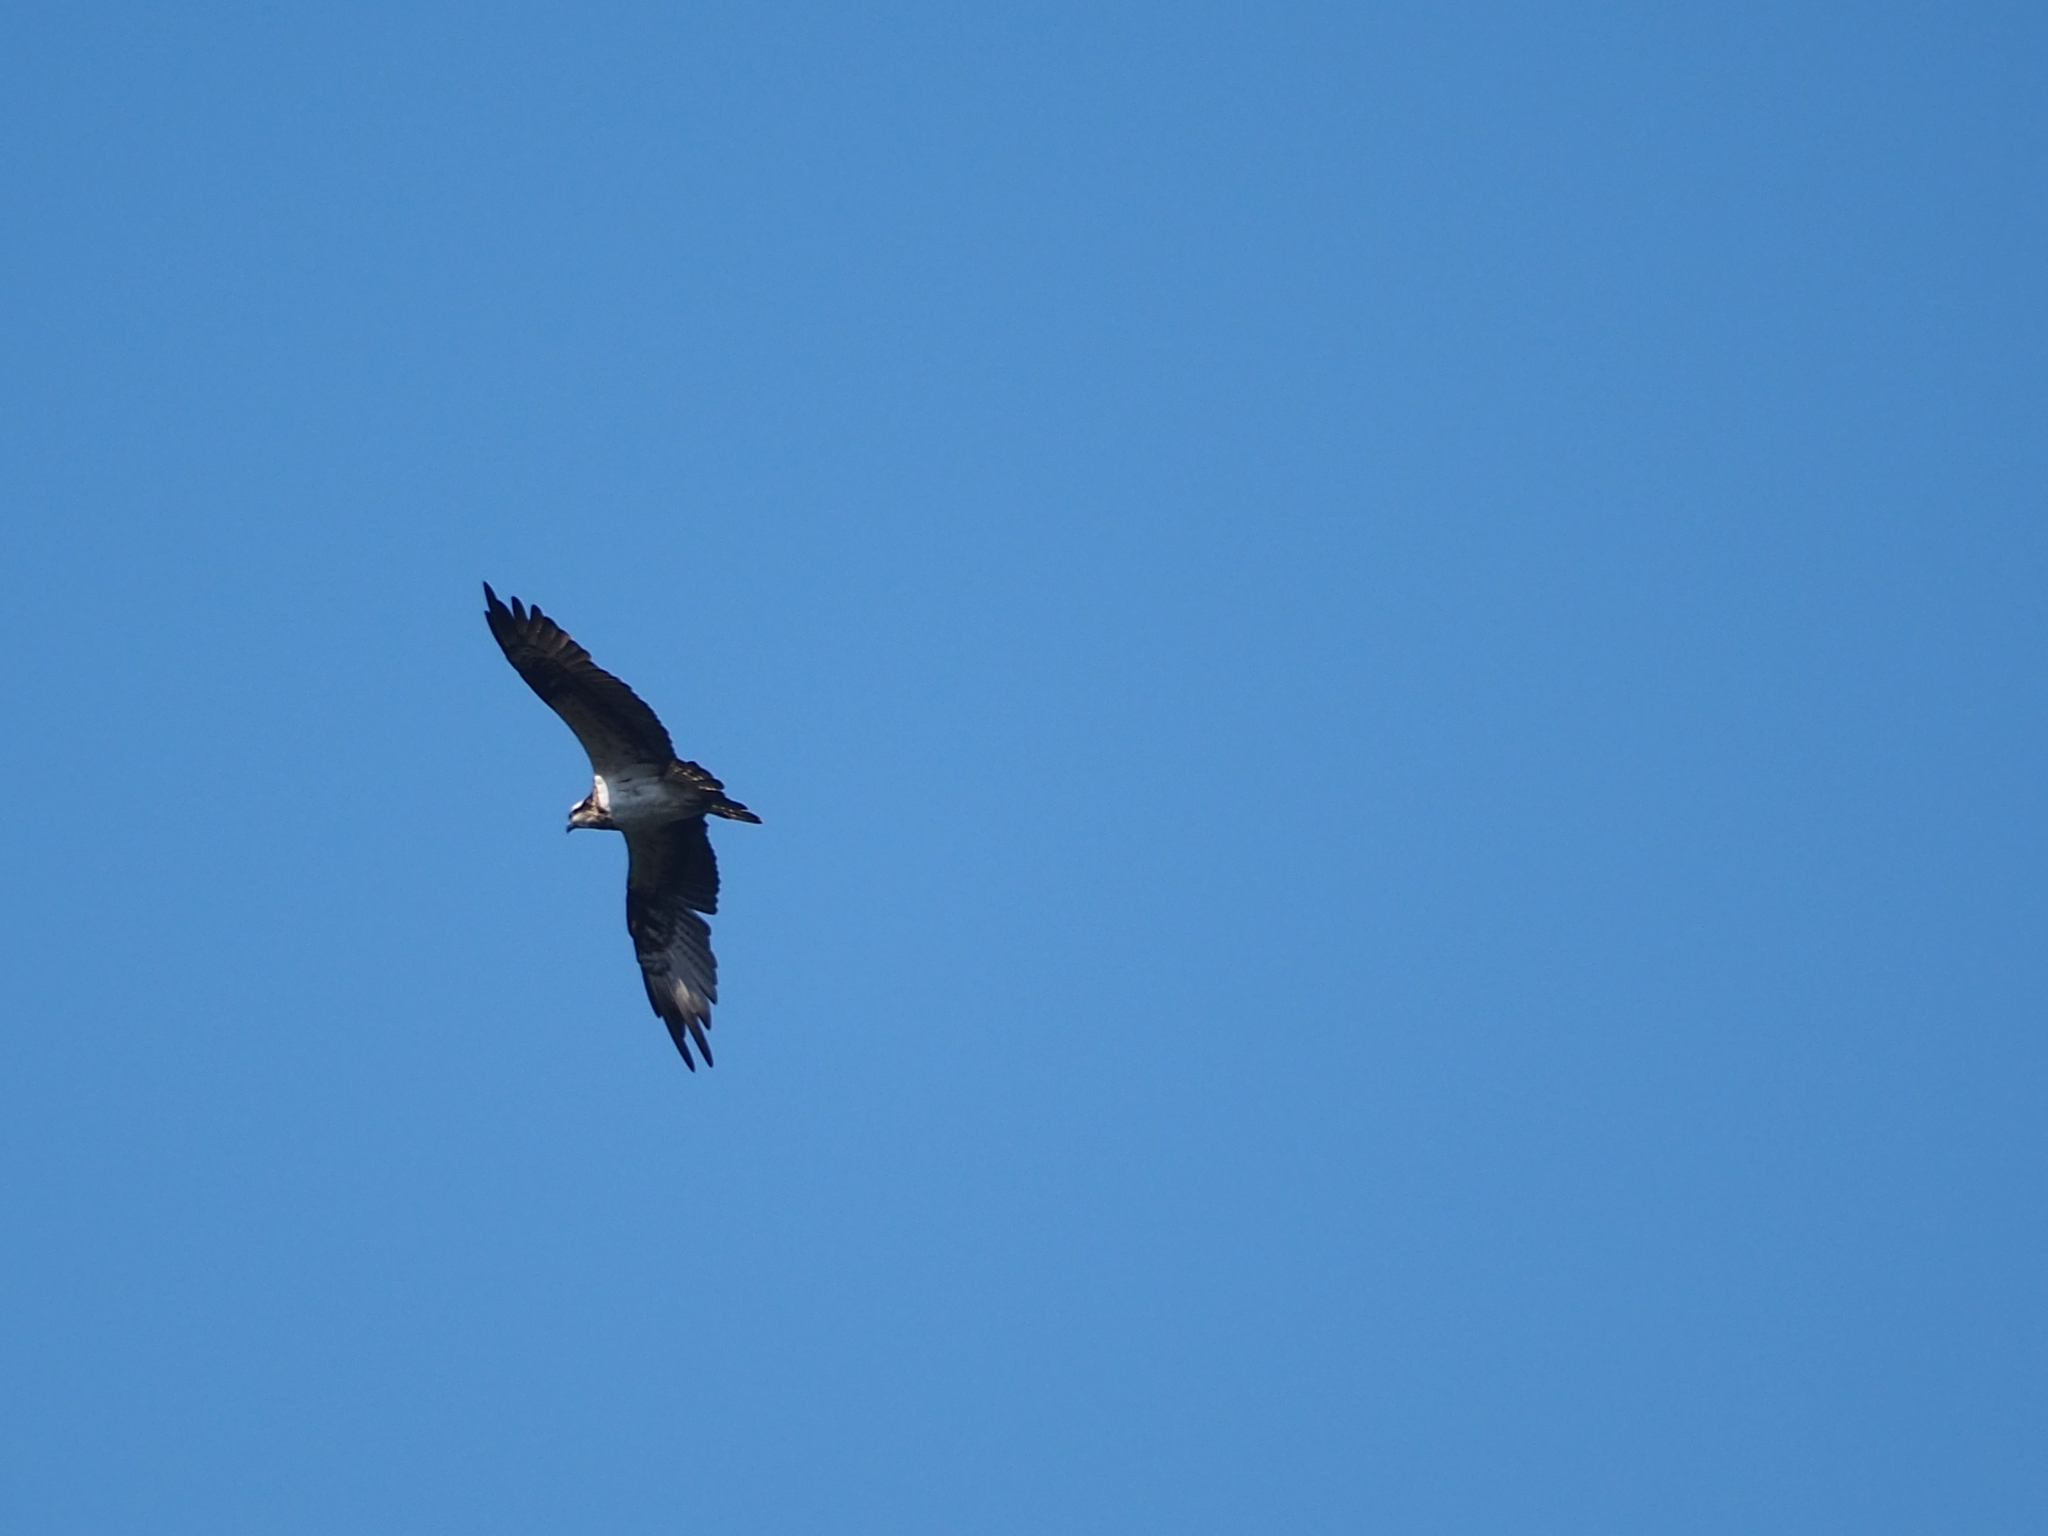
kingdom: Animalia
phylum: Chordata
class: Aves
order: Accipitriformes
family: Pandionidae
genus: Pandion
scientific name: Pandion haliaetus
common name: Osprey
